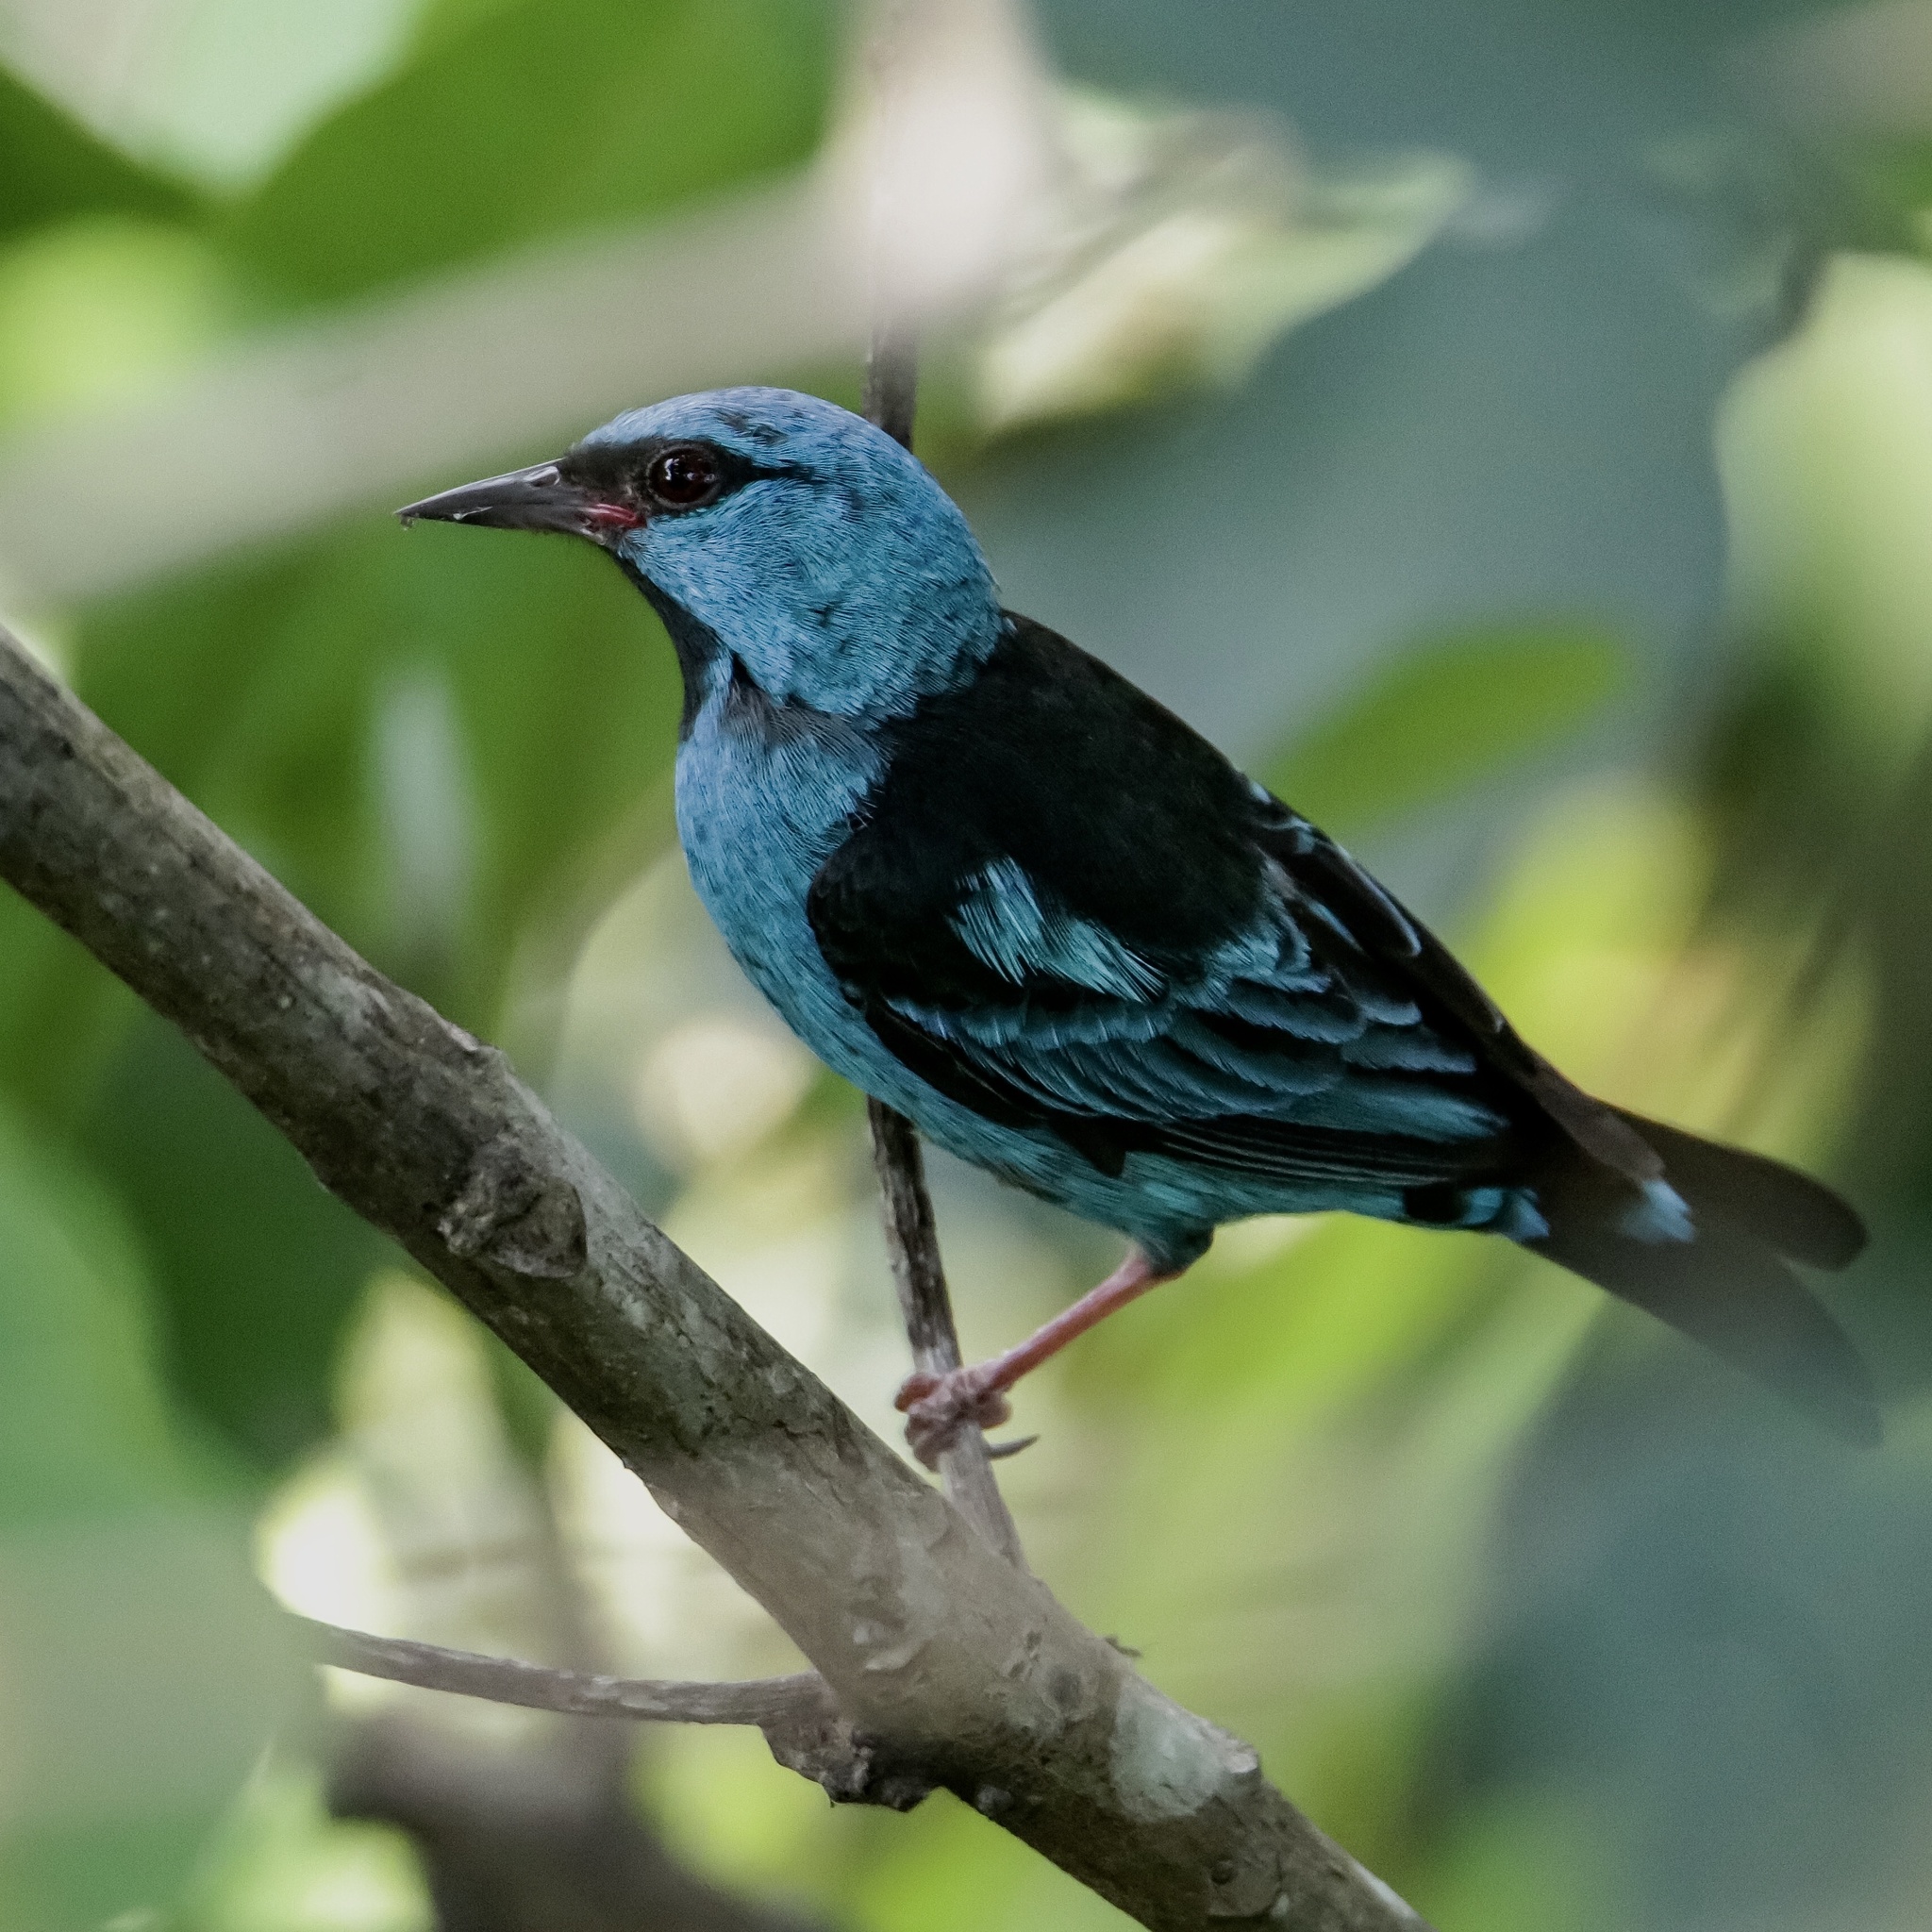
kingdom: Animalia
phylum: Chordata
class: Aves
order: Passeriformes
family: Thraupidae
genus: Dacnis
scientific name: Dacnis cayana
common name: Blue dacnis
